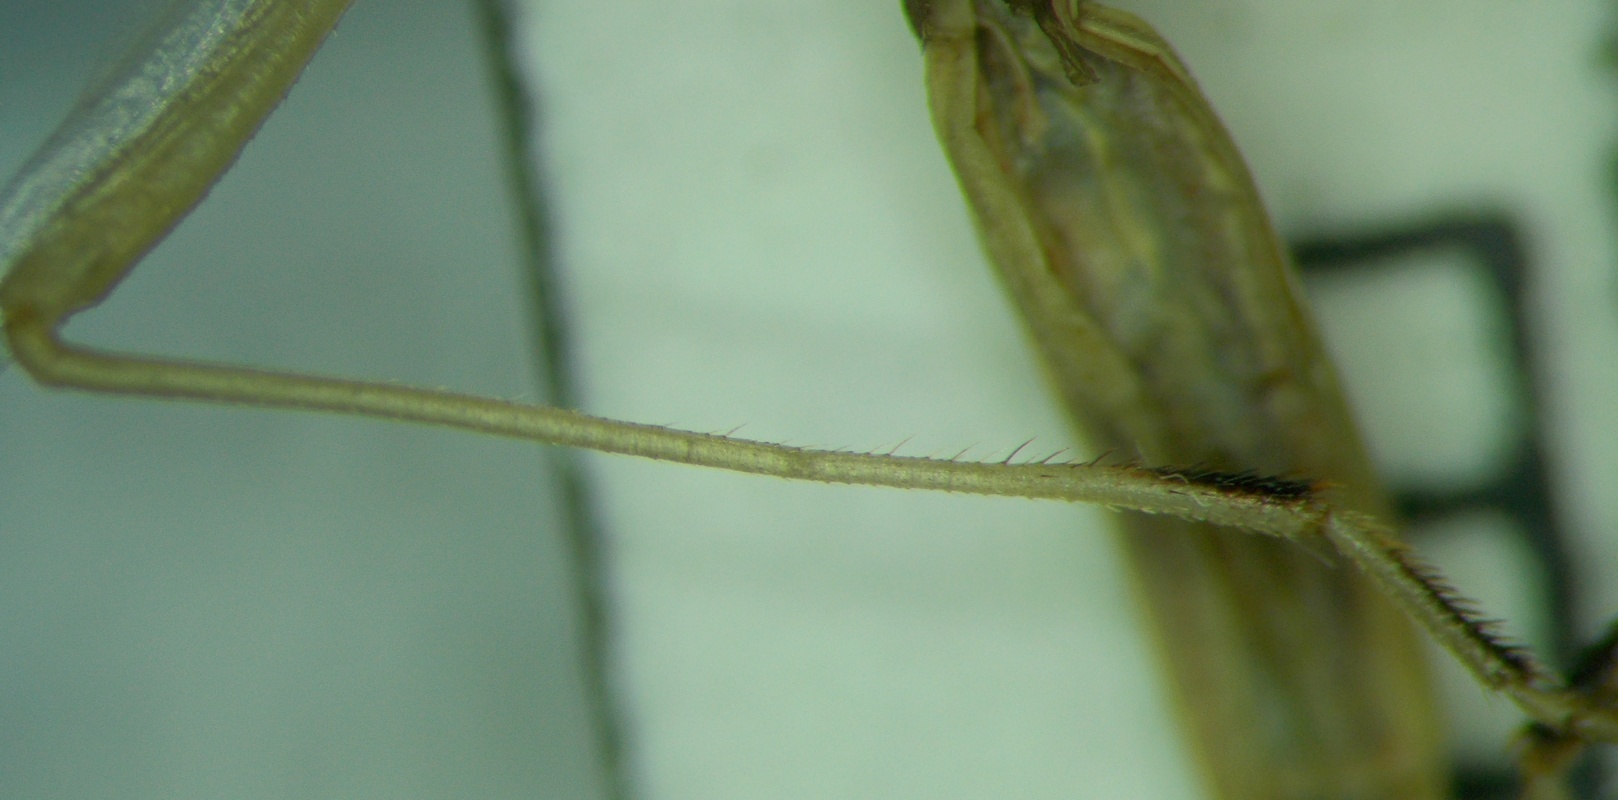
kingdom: Animalia
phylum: Arthropoda
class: Insecta
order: Hemiptera
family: Rhopalidae
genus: Chorosoma
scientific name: Chorosoma gracile
